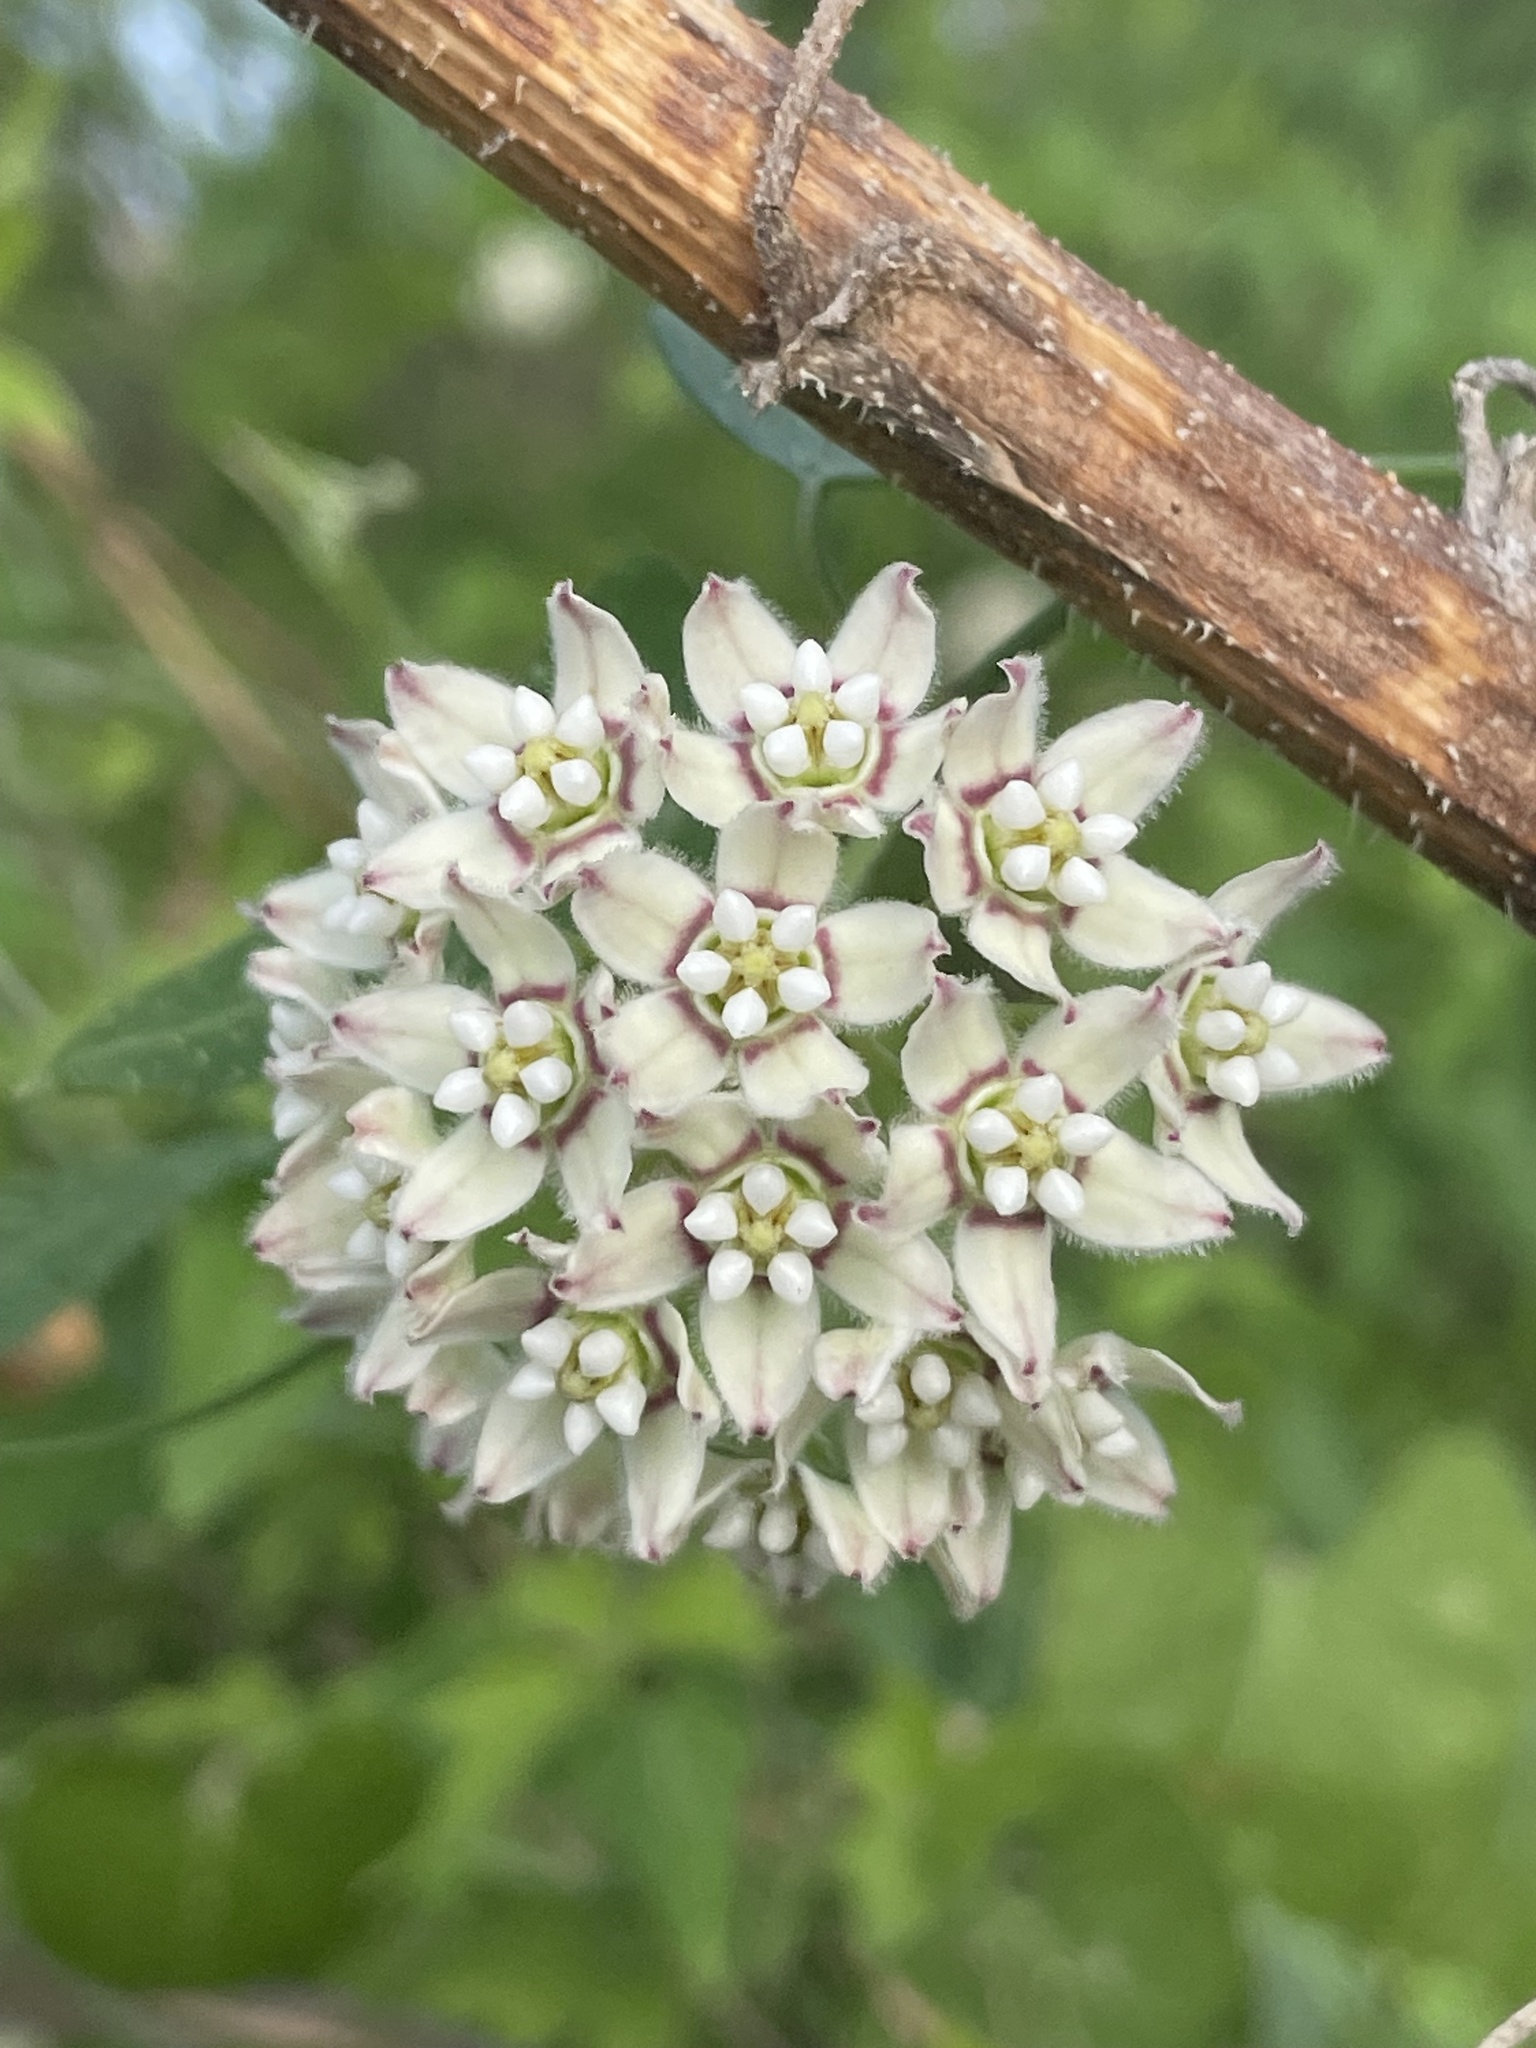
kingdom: Plantae
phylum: Tracheophyta
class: Magnoliopsida
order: Gentianales
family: Apocynaceae
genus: Funastrum
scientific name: Funastrum cynanchoides
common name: Climbing-milkweed
